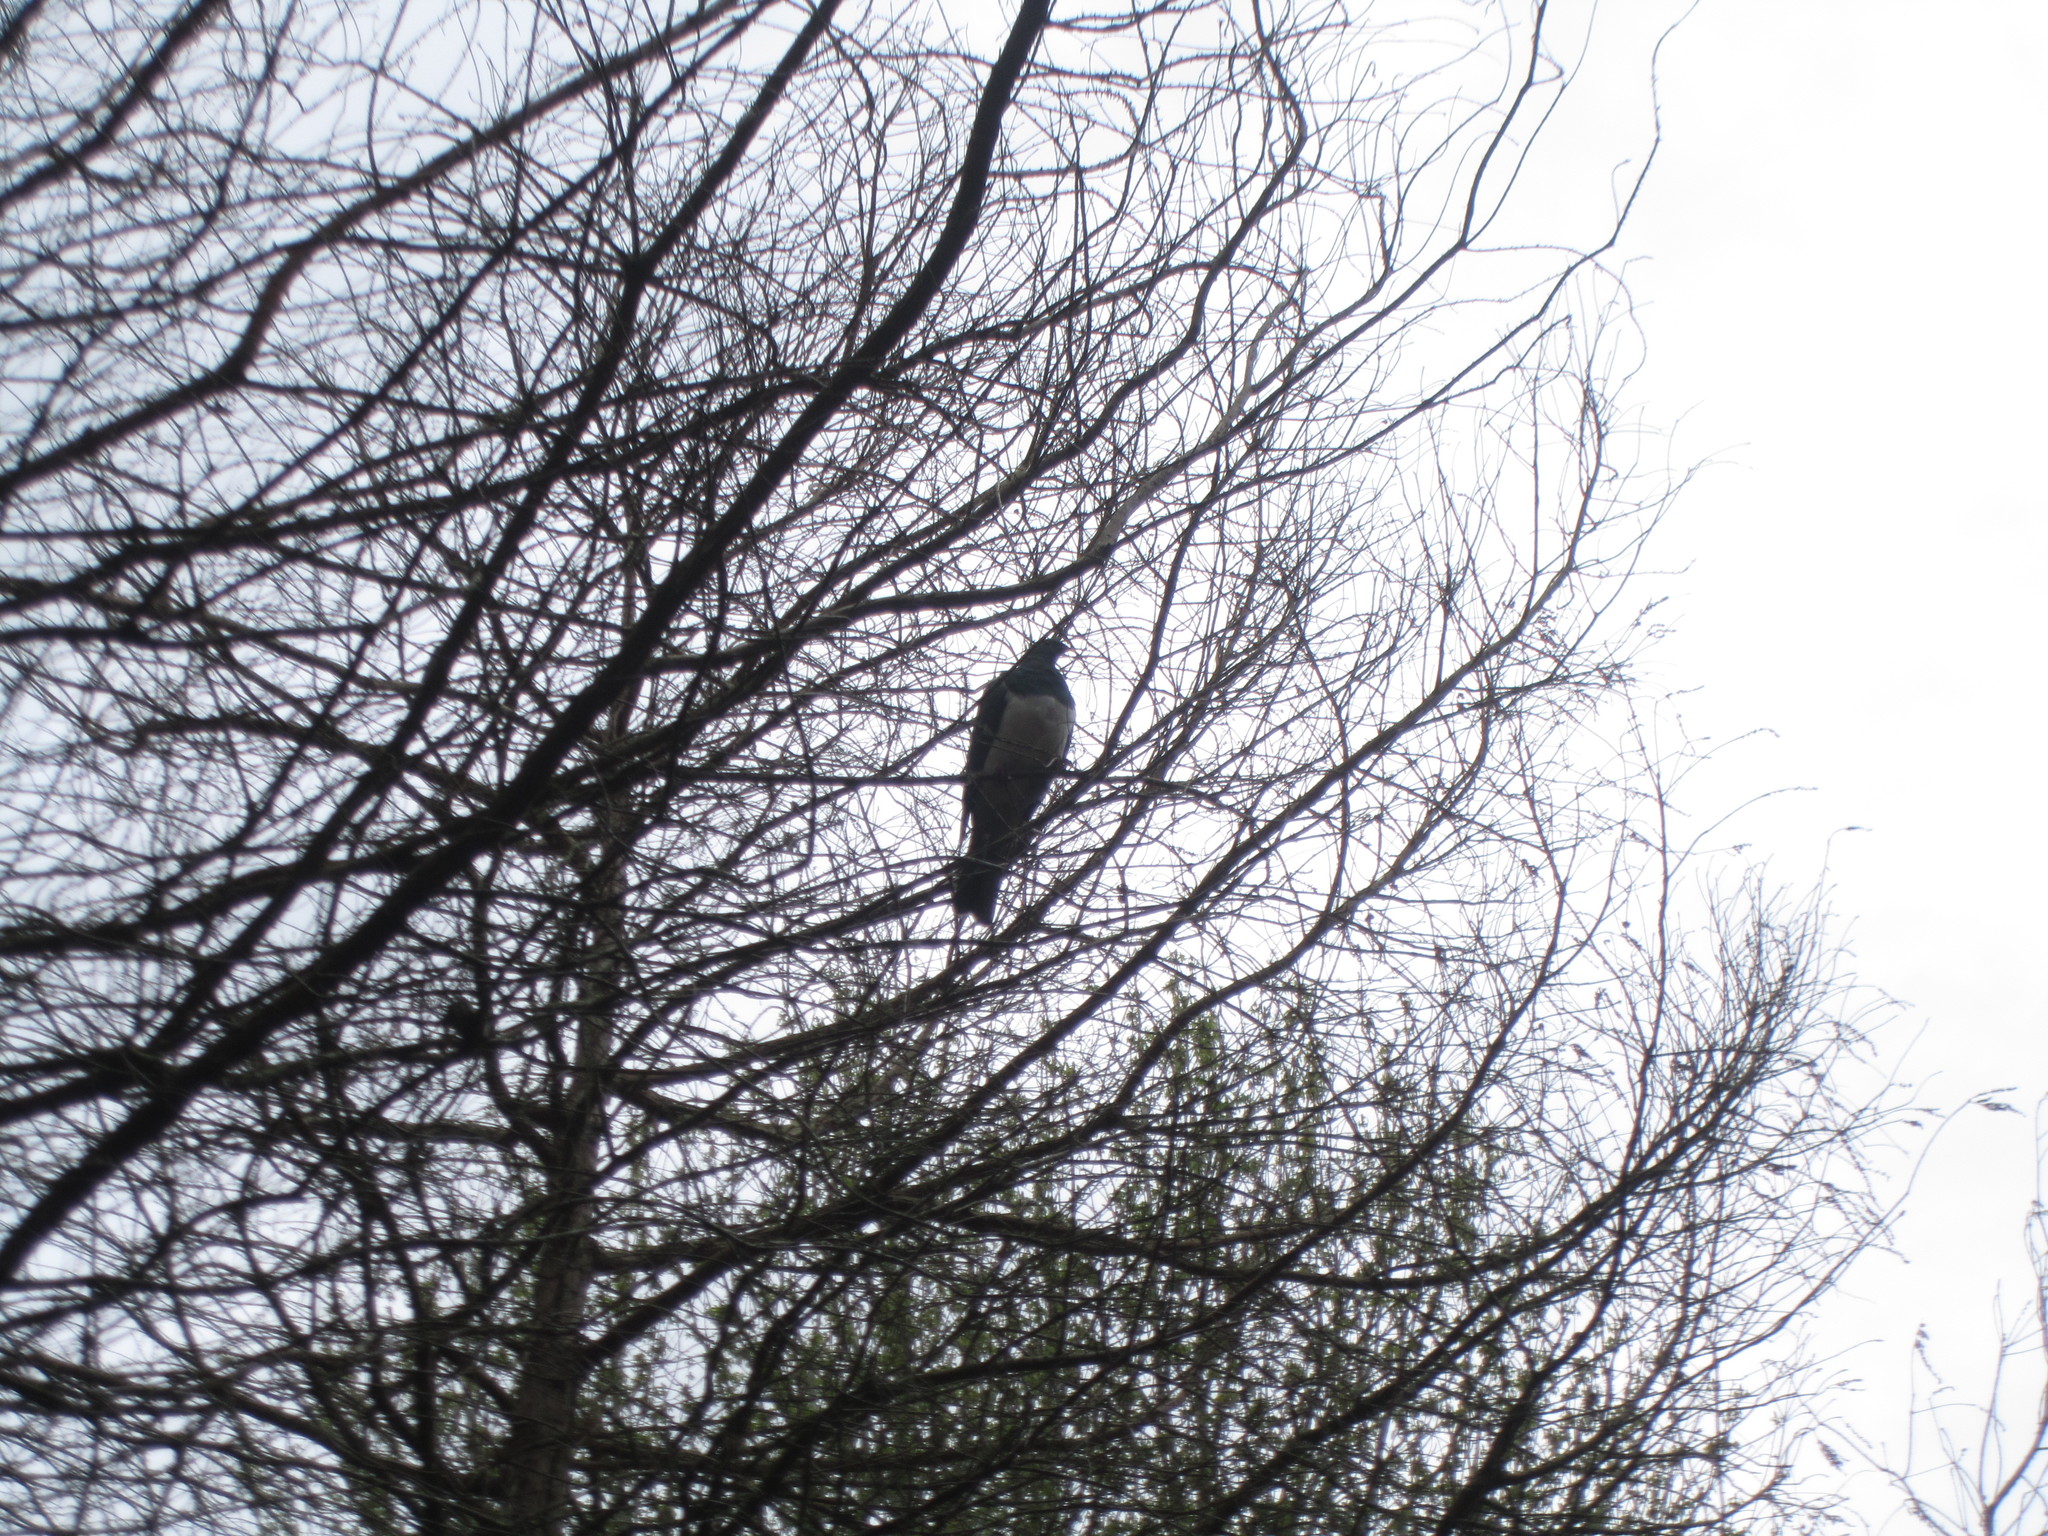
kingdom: Animalia
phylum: Chordata
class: Aves
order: Columbiformes
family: Columbidae
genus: Hemiphaga
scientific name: Hemiphaga novaeseelandiae
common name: New zealand pigeon
